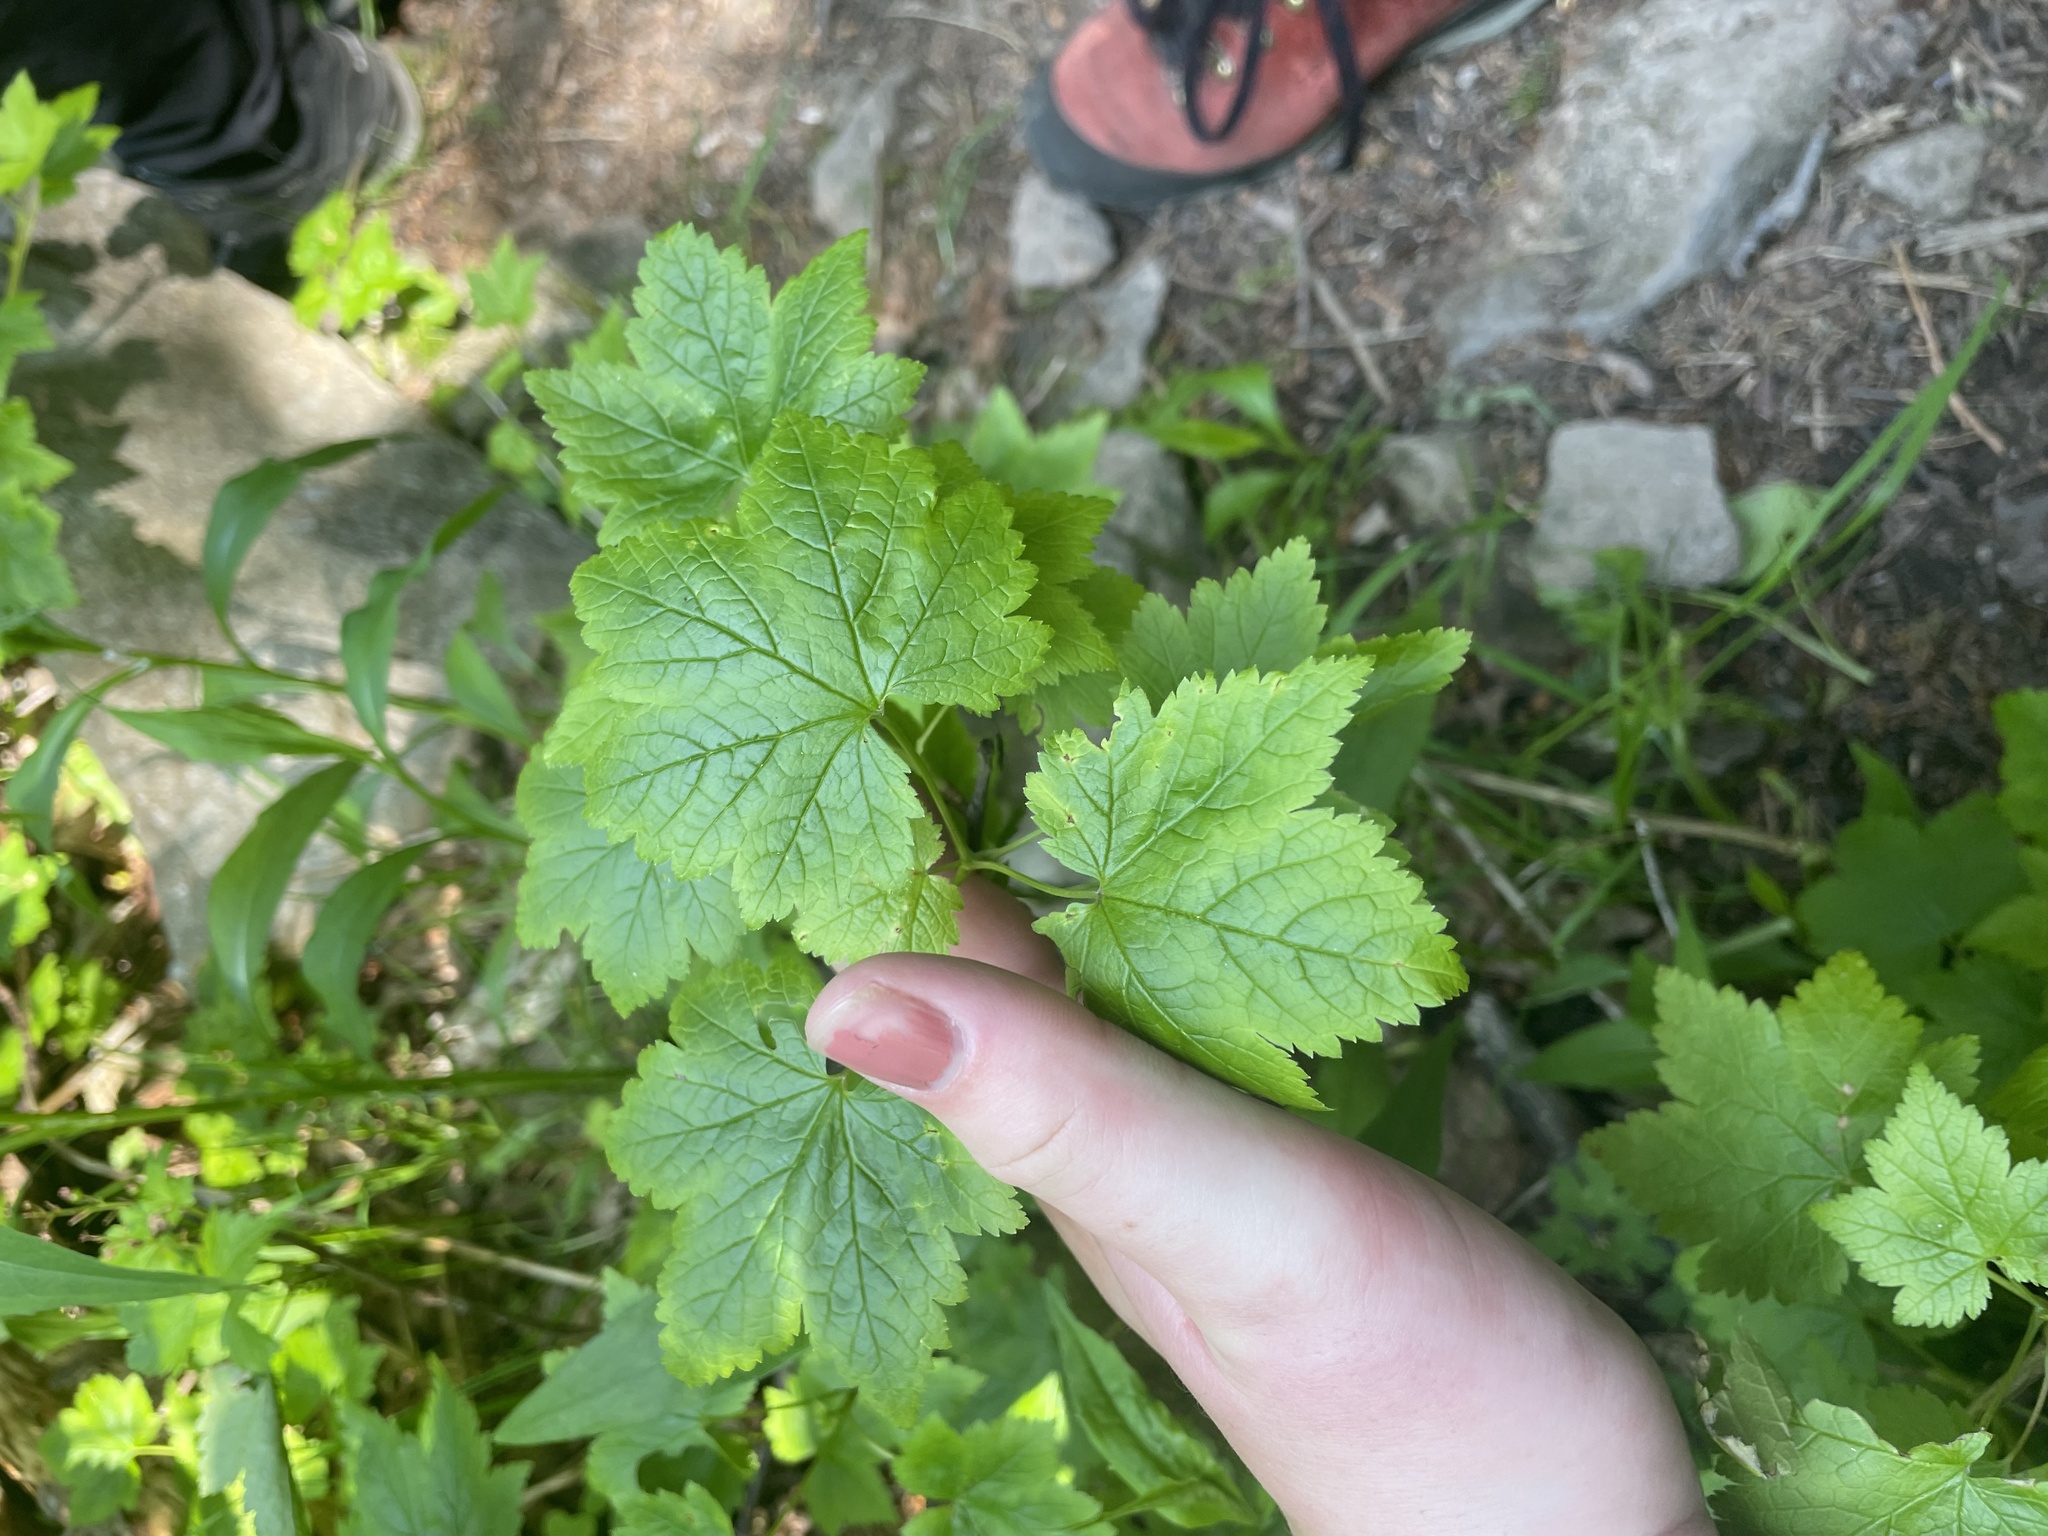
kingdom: Plantae
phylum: Tracheophyta
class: Magnoliopsida
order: Saxifragales
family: Grossulariaceae
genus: Ribes
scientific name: Ribes glandulosum
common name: Skunk currant
